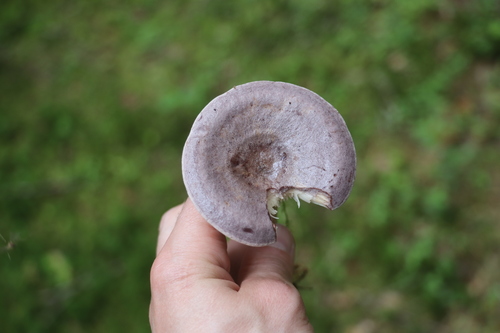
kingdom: Fungi
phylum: Basidiomycota
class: Agaricomycetes
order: Russulales
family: Russulaceae
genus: Lactarius
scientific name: Lactarius trivialis
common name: Tacked milkcap
